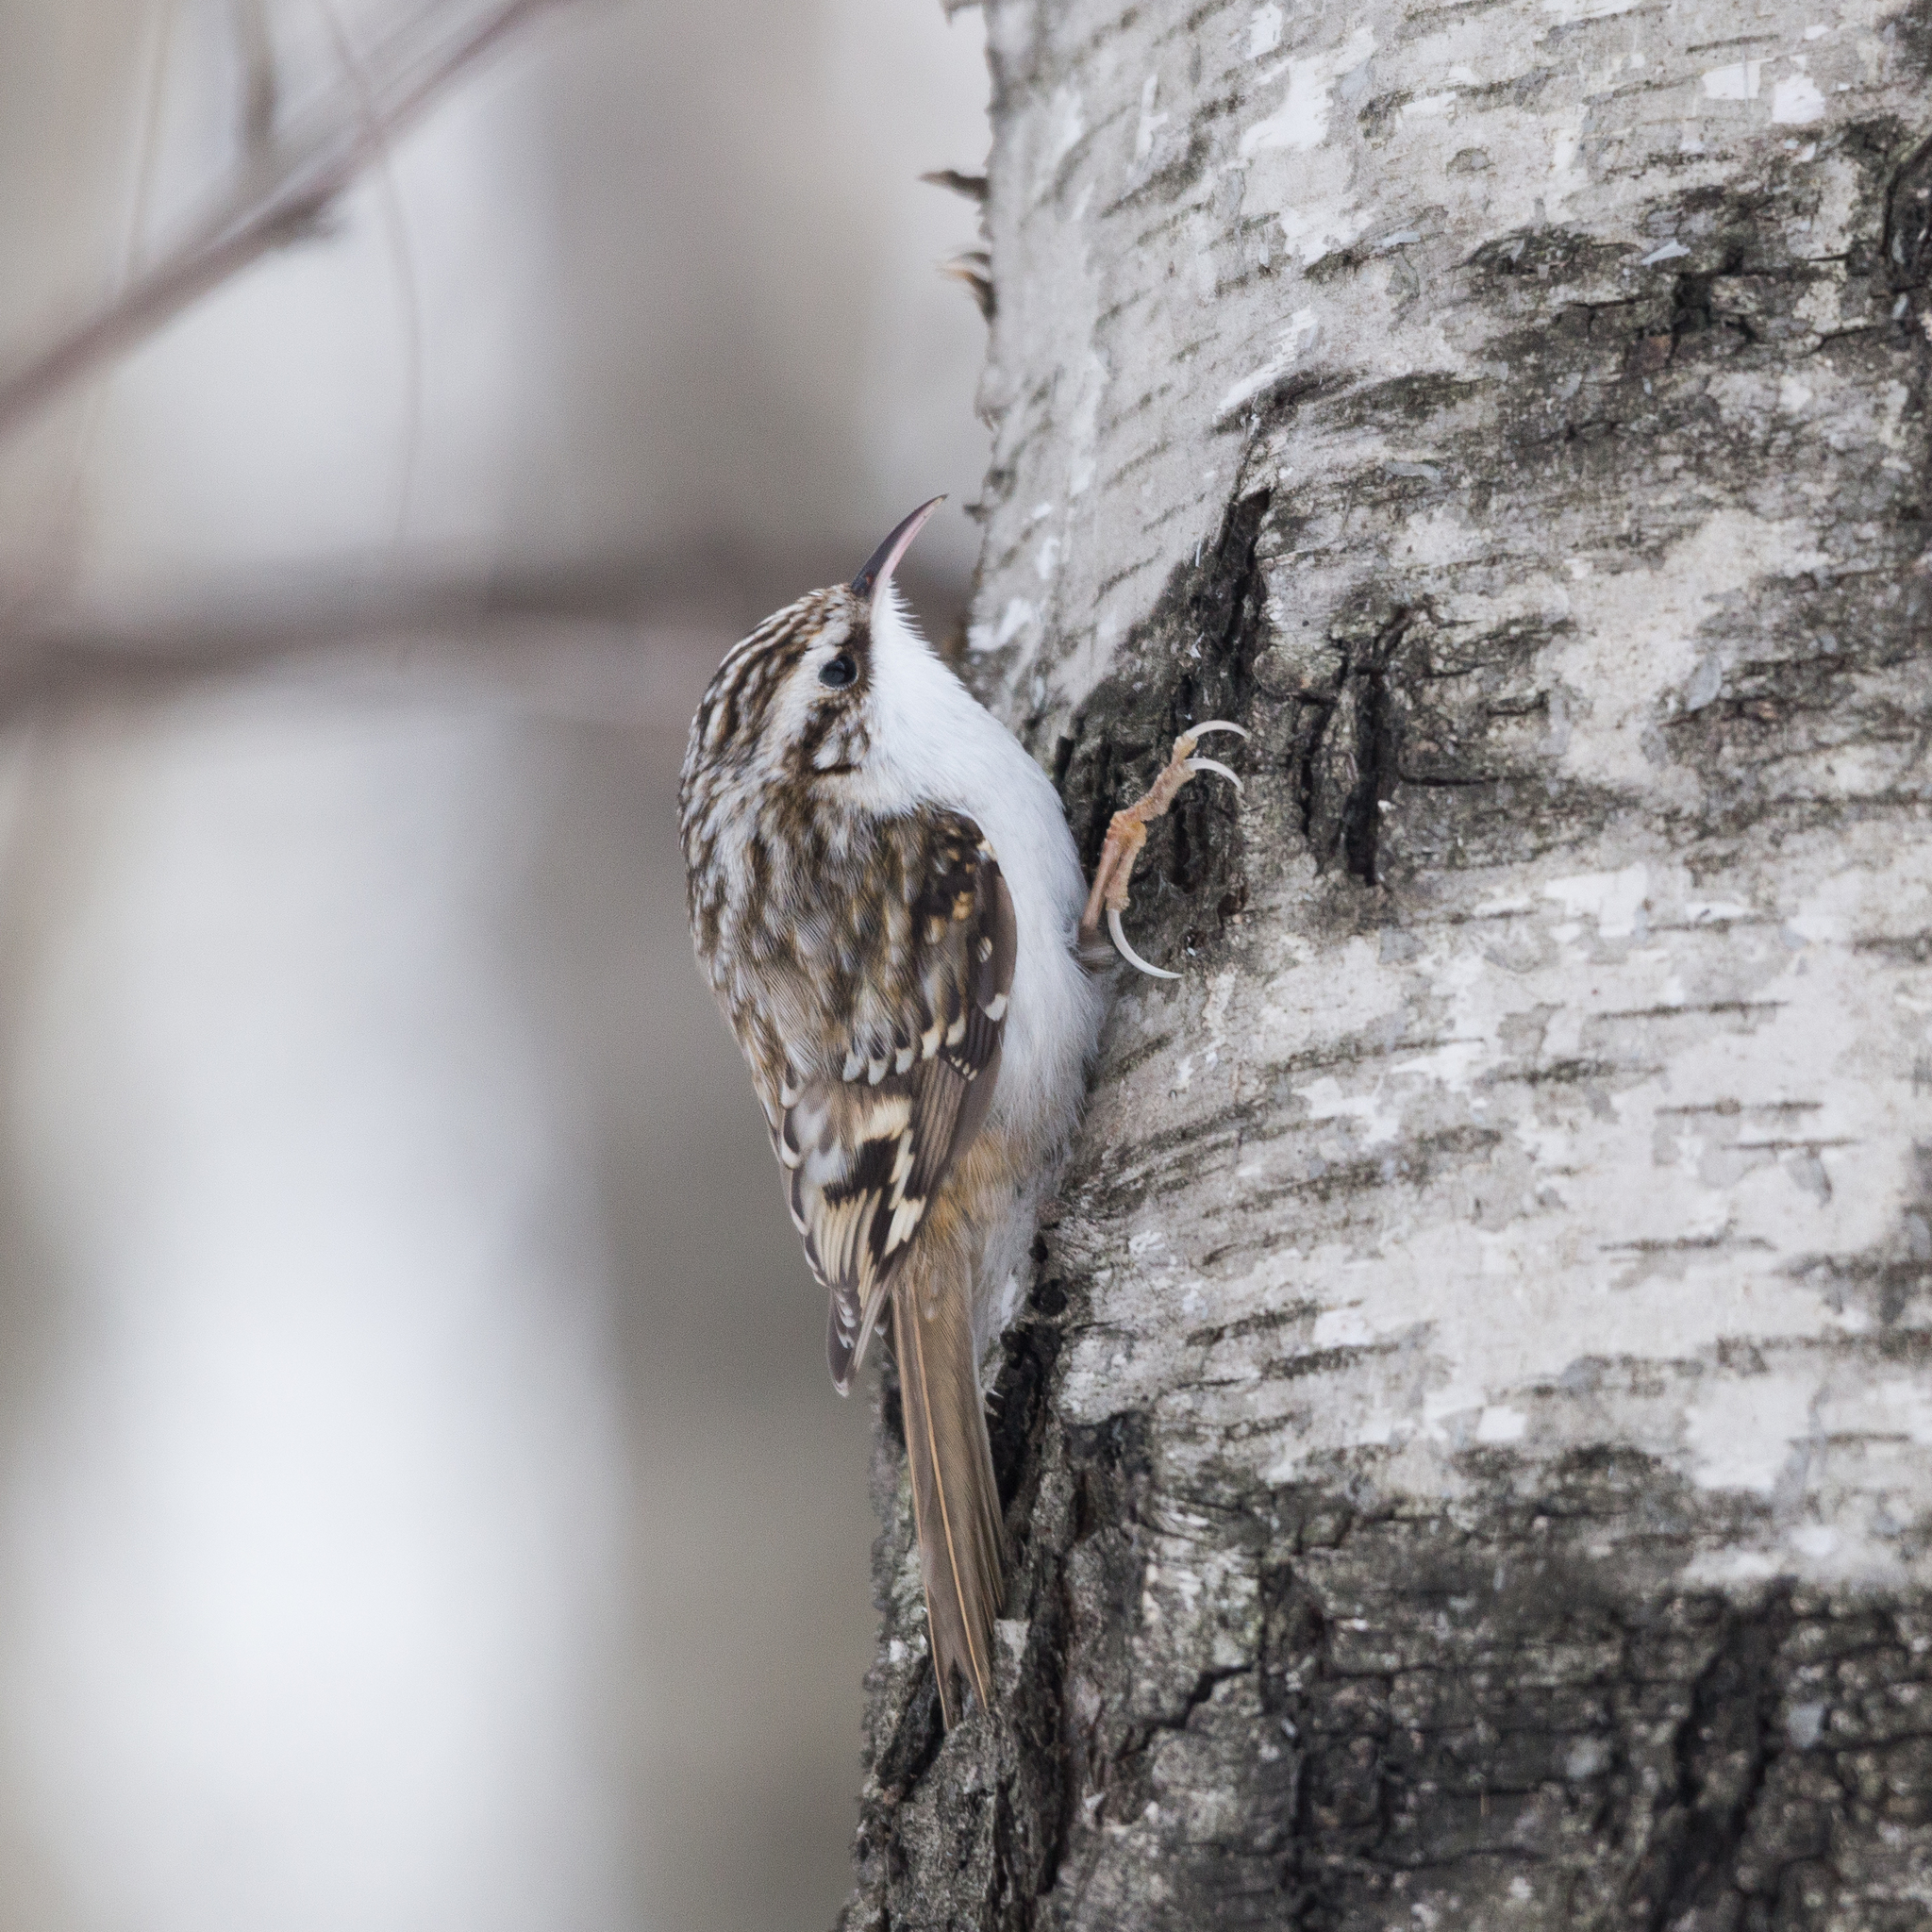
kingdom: Animalia
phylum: Chordata
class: Aves
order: Passeriformes
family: Certhiidae
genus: Certhia
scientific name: Certhia familiaris
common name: Eurasian treecreeper
